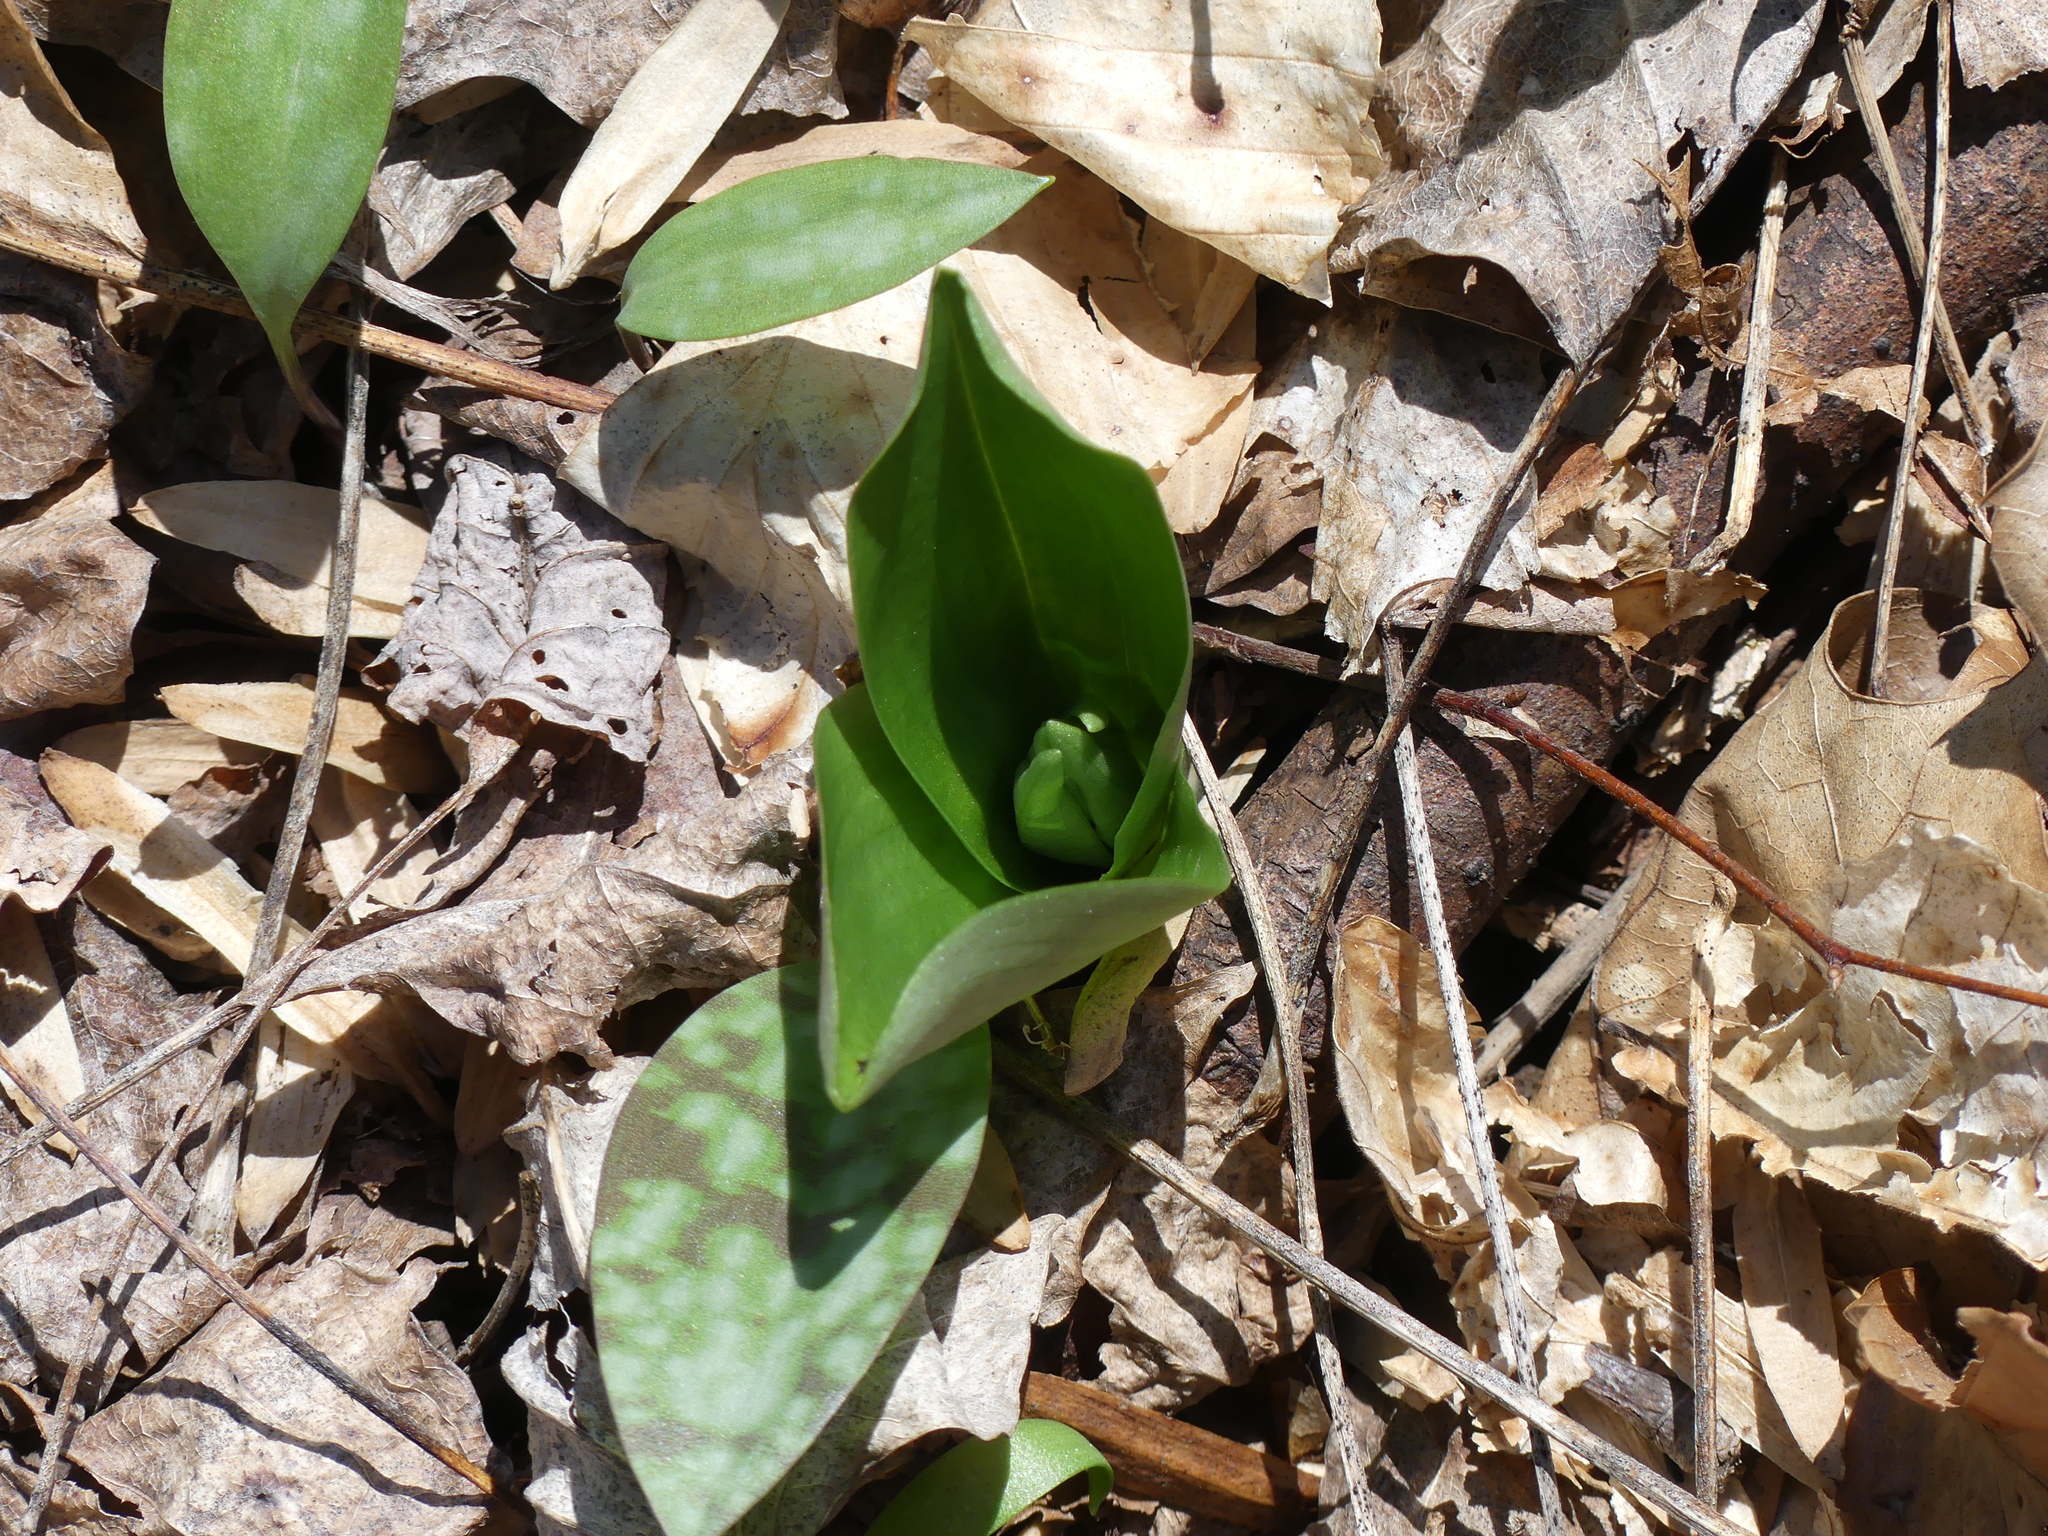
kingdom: Plantae
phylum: Tracheophyta
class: Liliopsida
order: Asparagales
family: Orchidaceae
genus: Galearis
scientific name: Galearis spectabilis
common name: Purple-hooded orchis
